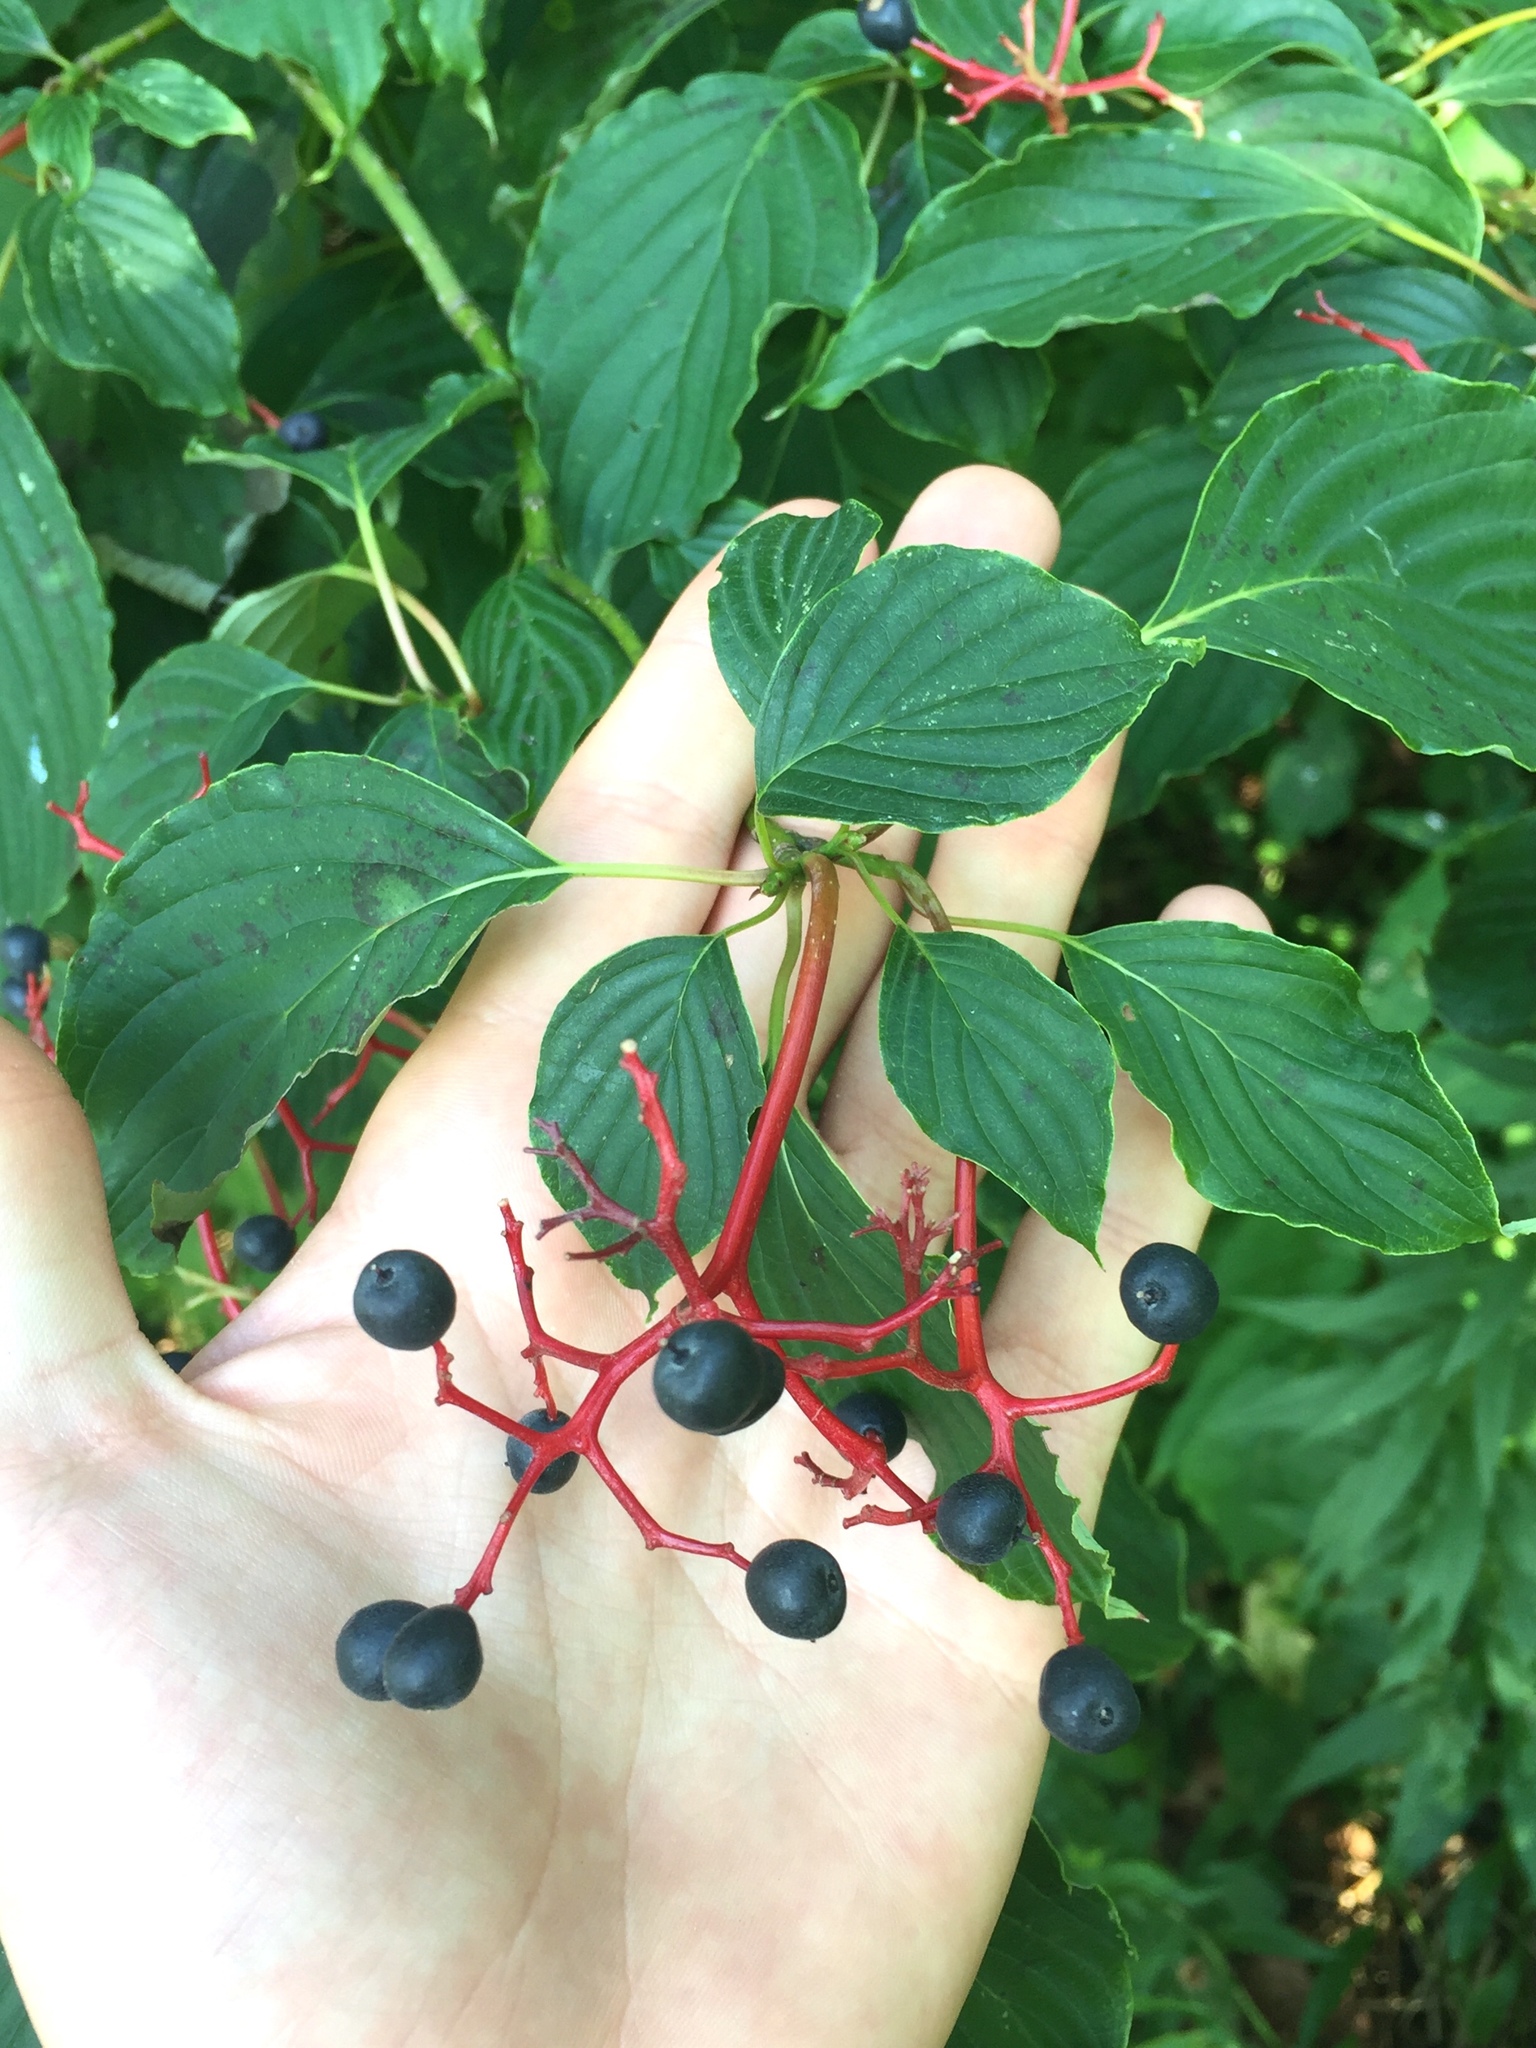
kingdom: Plantae
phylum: Tracheophyta
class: Magnoliopsida
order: Cornales
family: Cornaceae
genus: Cornus
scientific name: Cornus alternifolia
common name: Pagoda dogwood
